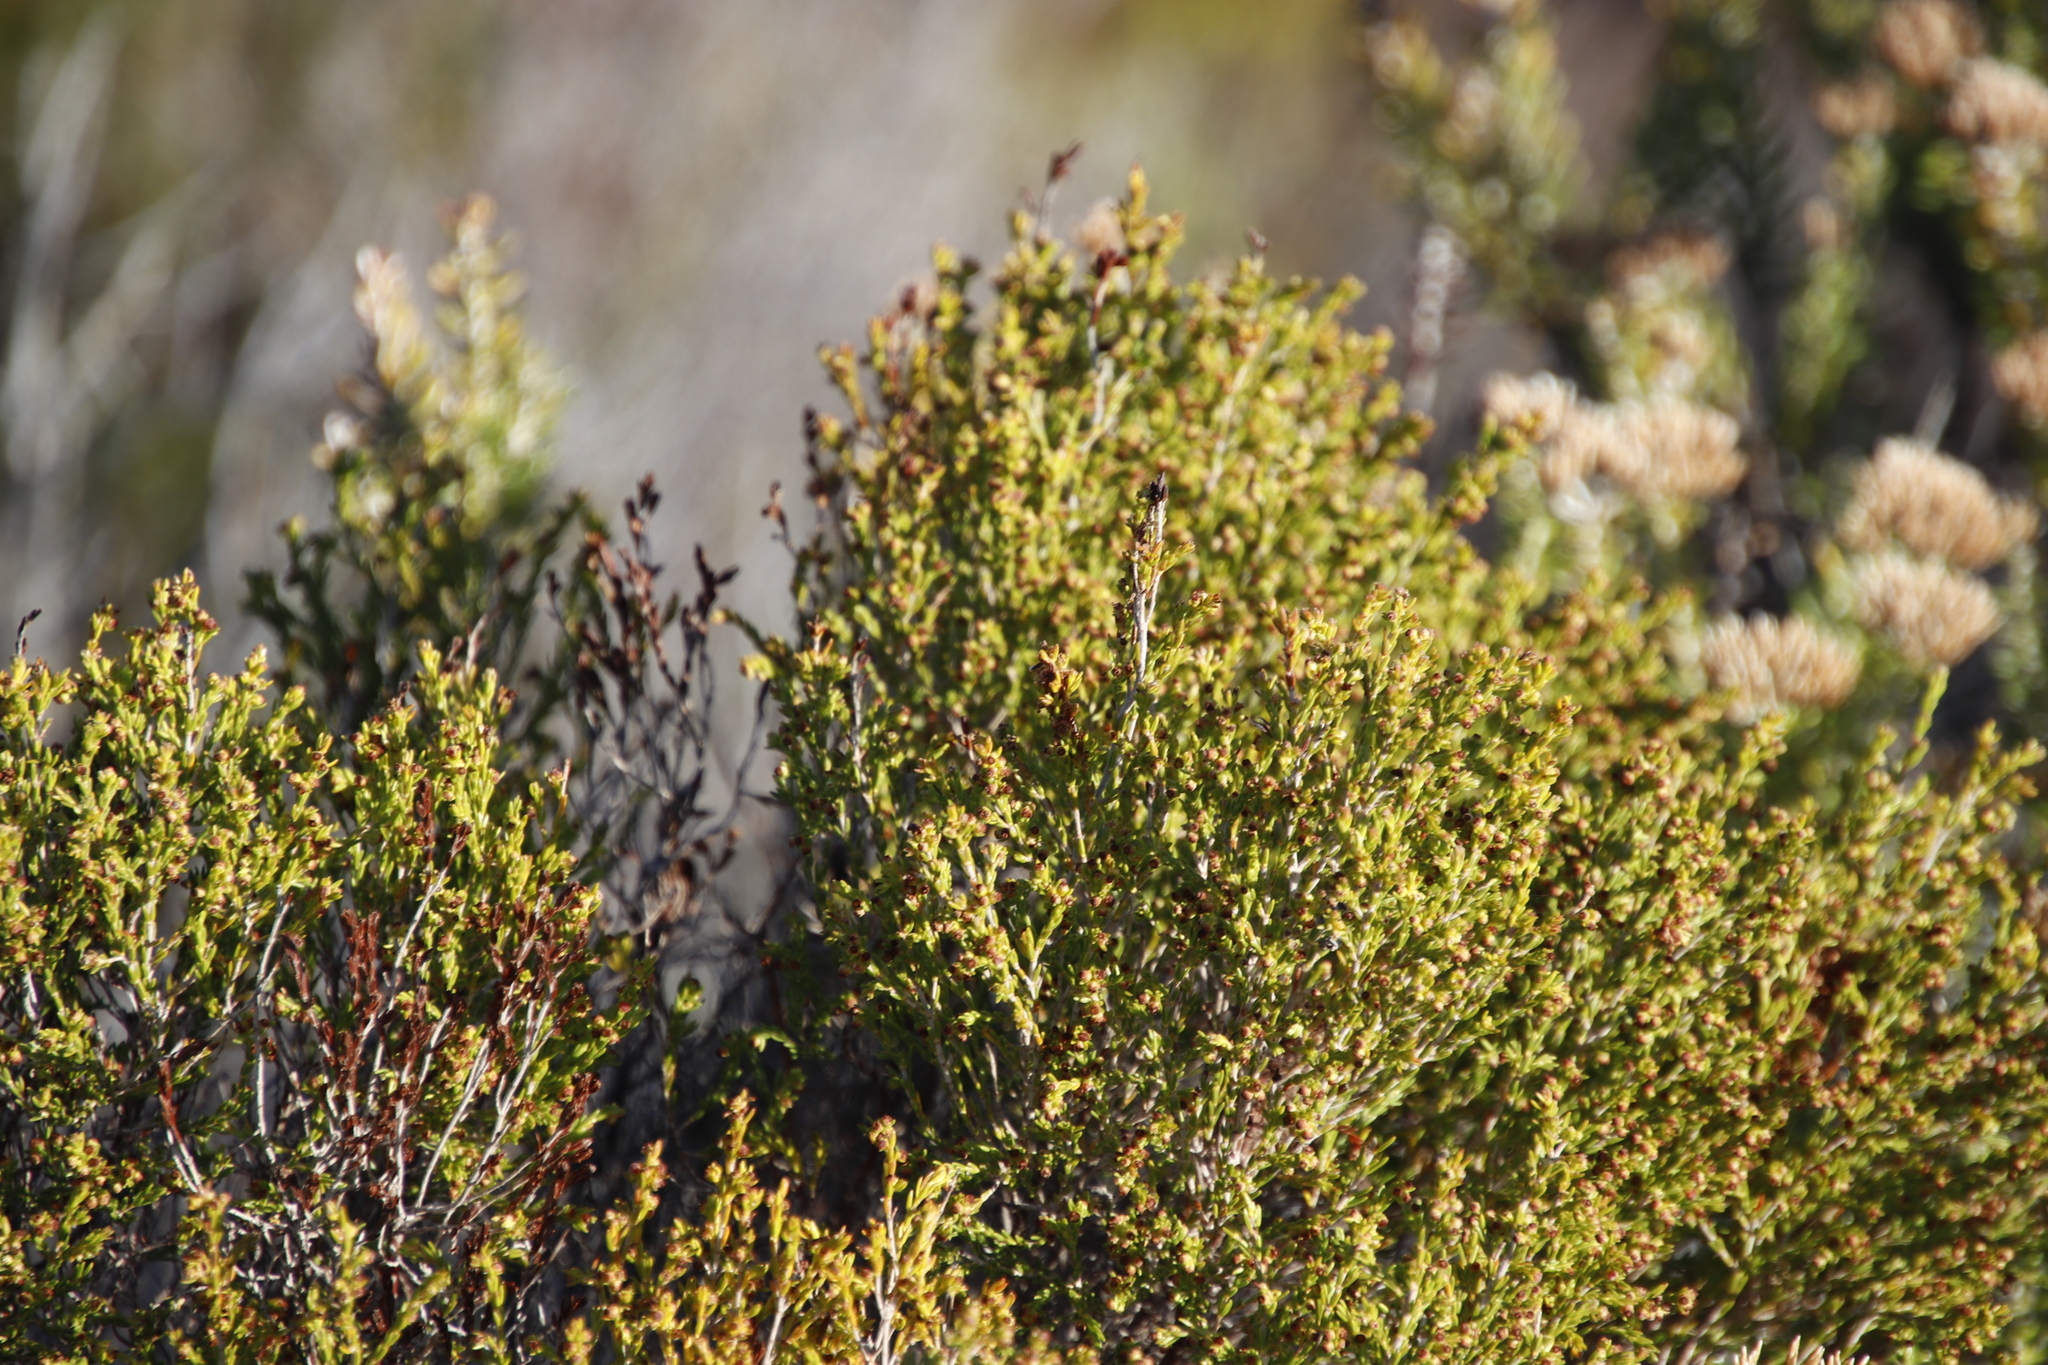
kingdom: Plantae
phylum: Tracheophyta
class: Magnoliopsida
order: Ericales
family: Ericaceae
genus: Erica
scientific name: Erica axillaris
